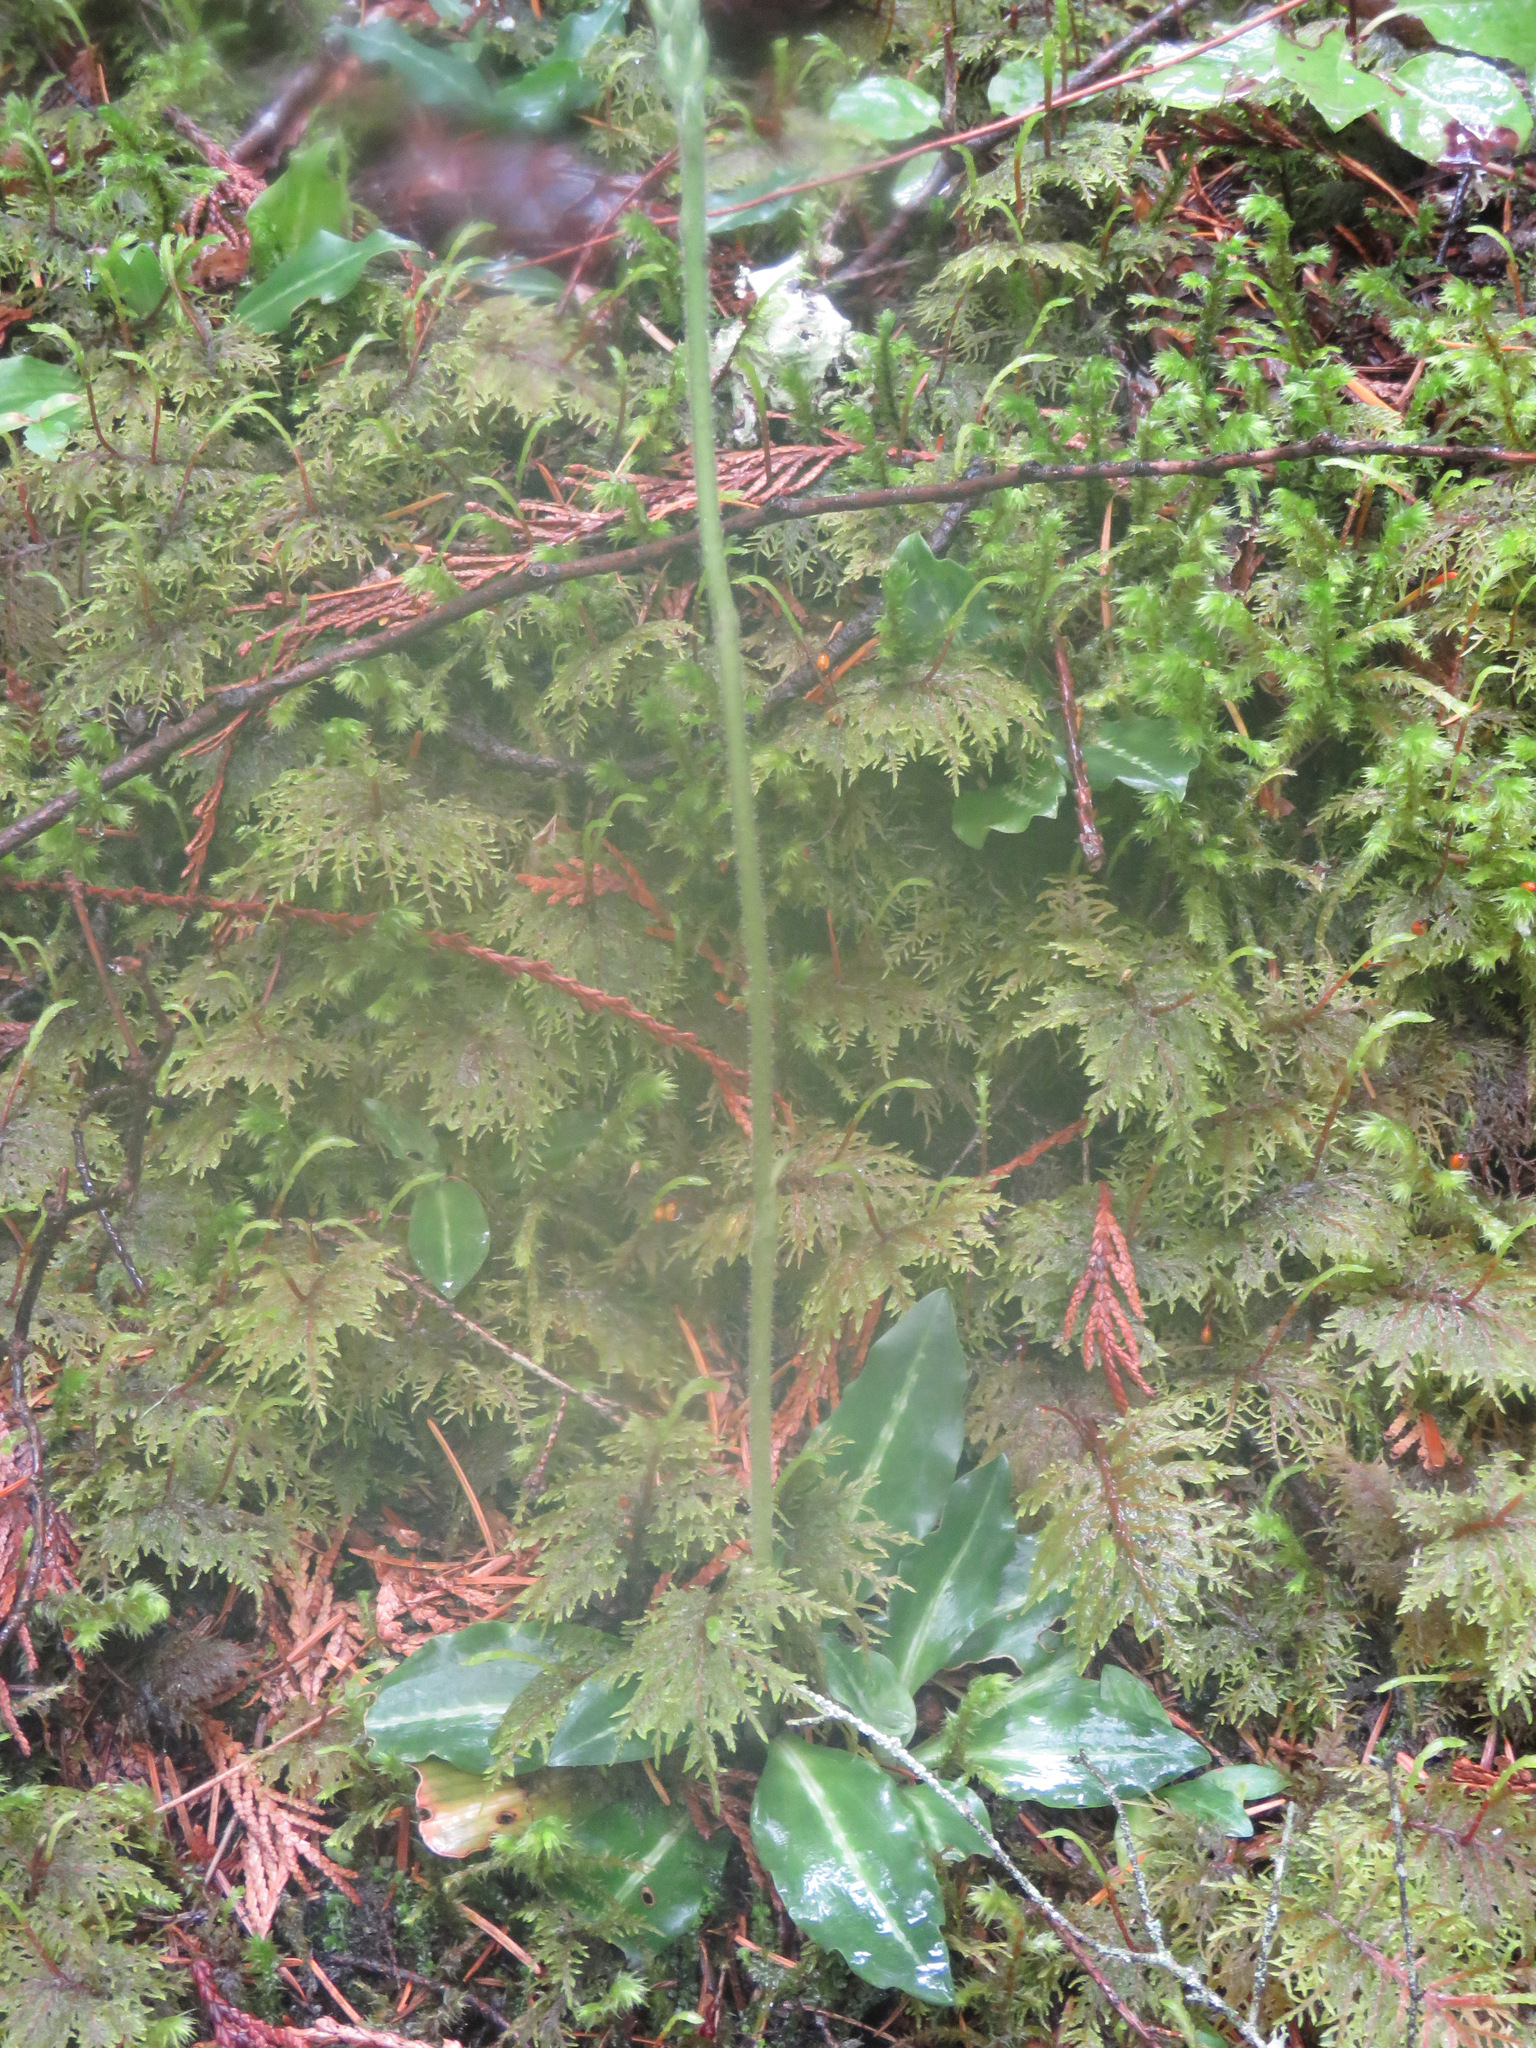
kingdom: Plantae
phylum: Tracheophyta
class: Liliopsida
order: Asparagales
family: Orchidaceae
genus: Goodyera
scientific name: Goodyera oblongifolia
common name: Giant rattlesnake-plantain
